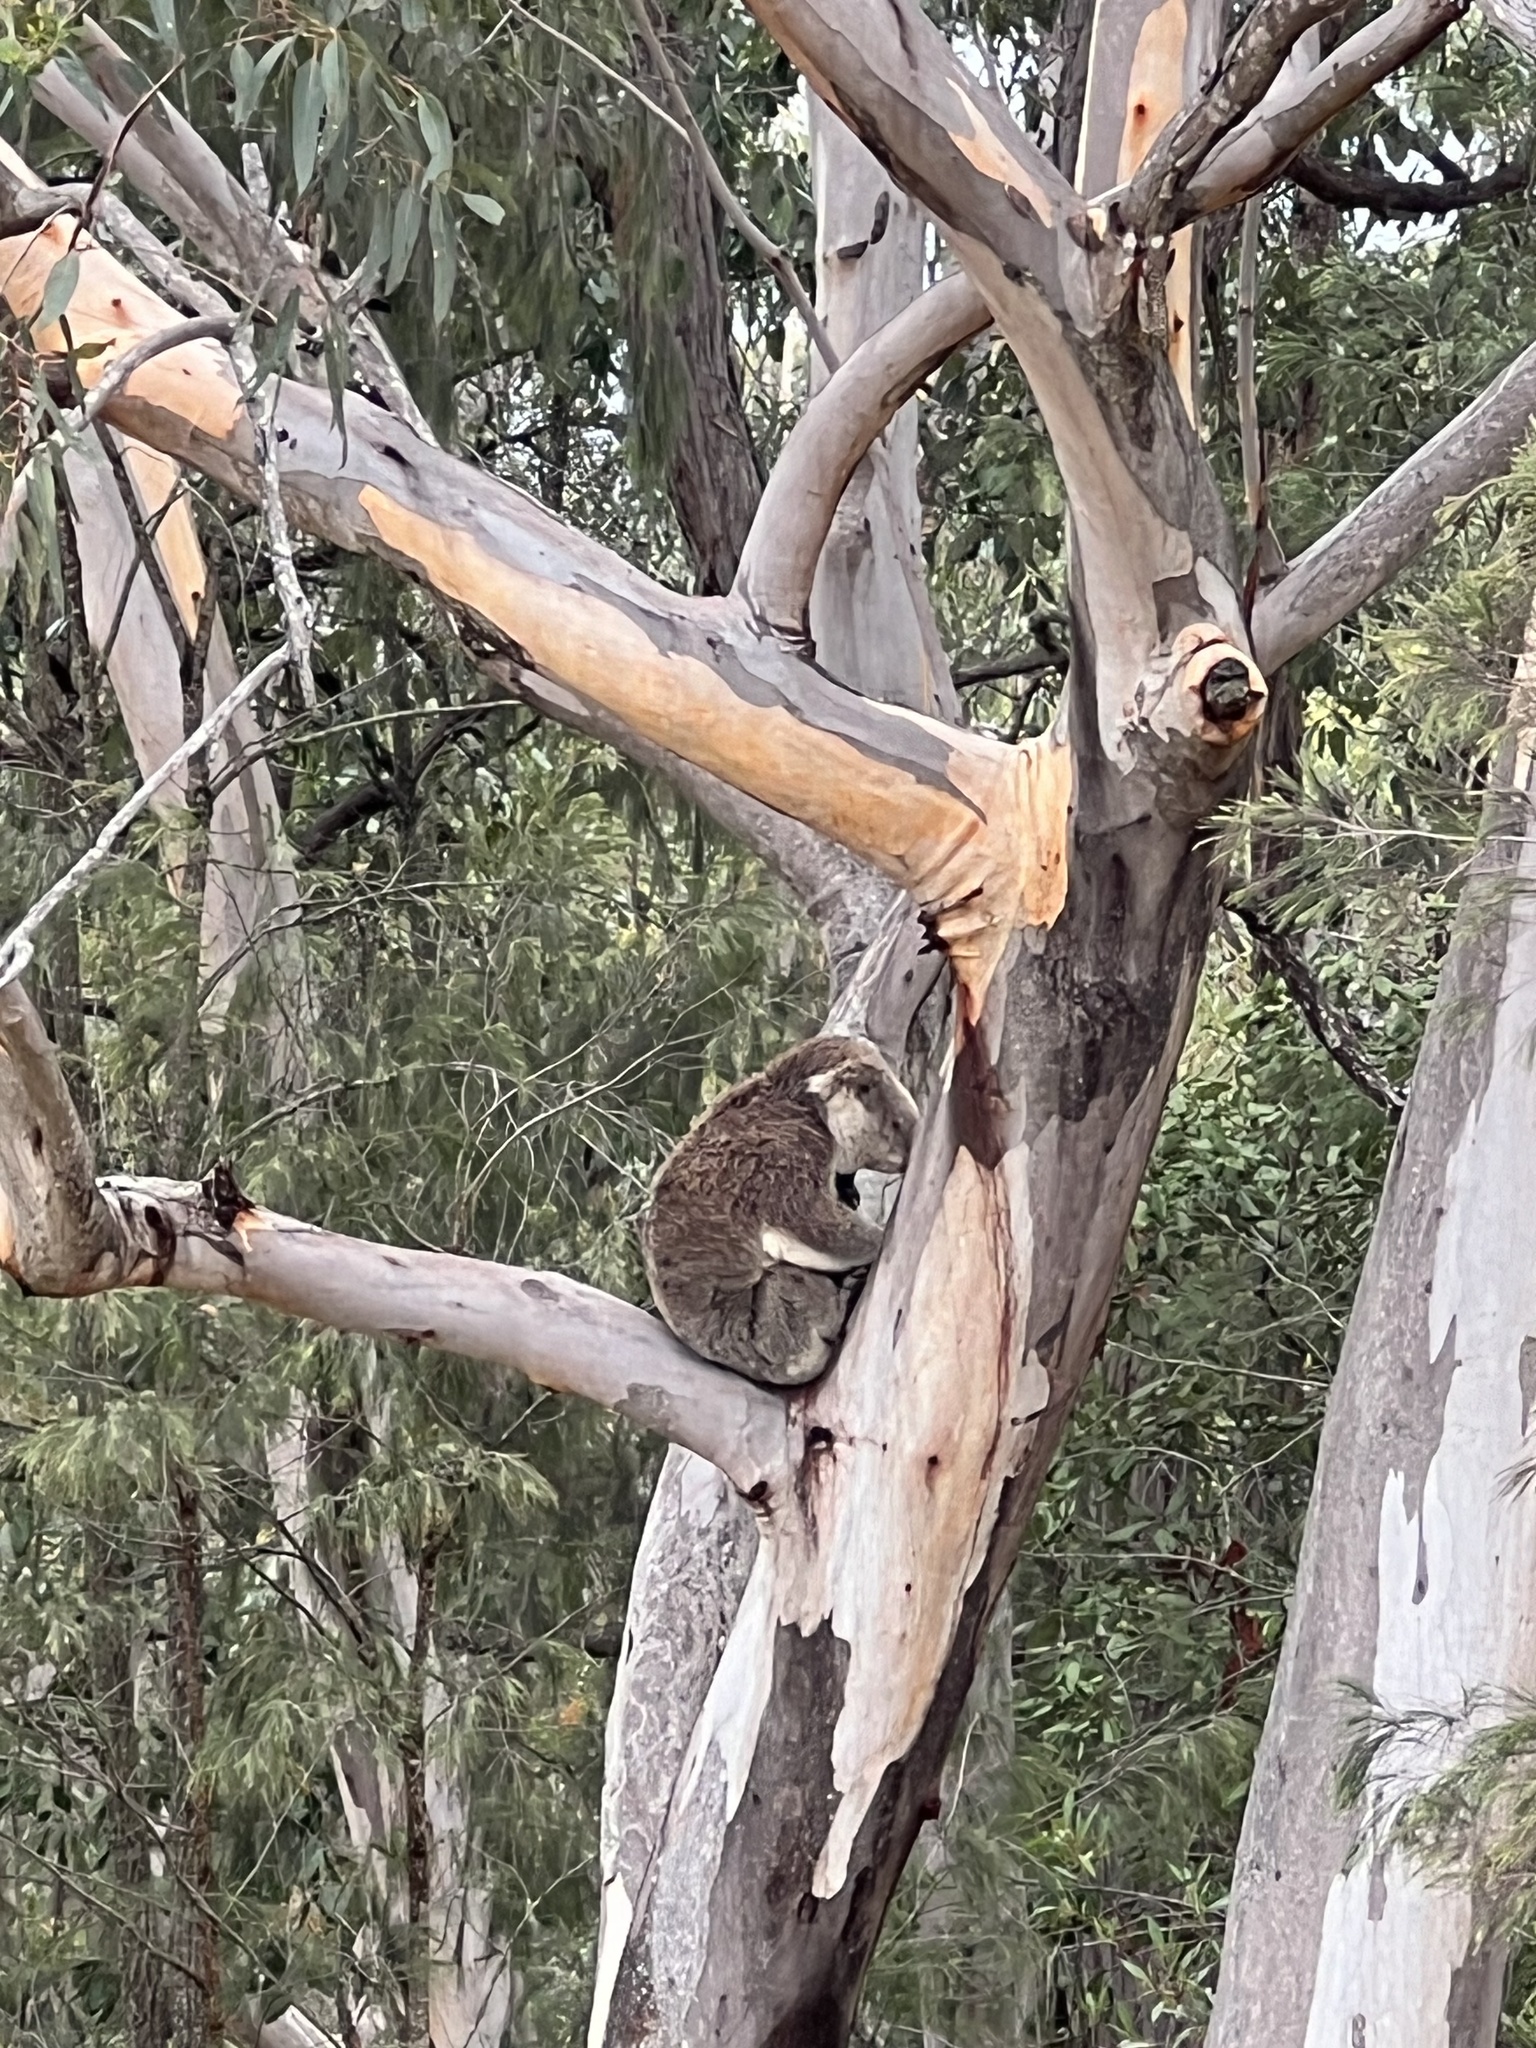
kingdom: Animalia
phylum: Chordata
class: Mammalia
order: Diprotodontia
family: Phascolarctidae
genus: Phascolarctos
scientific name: Phascolarctos cinereus
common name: Koala
